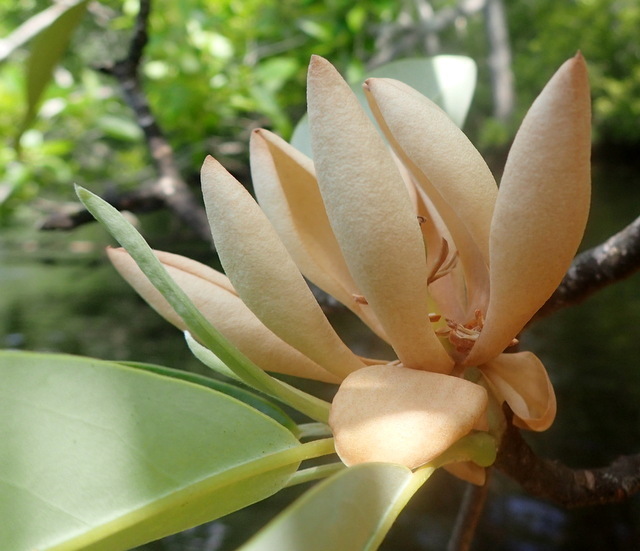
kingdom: Plantae
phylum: Tracheophyta
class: Magnoliopsida
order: Magnoliales
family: Magnoliaceae
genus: Magnolia
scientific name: Magnolia virginiana
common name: Swamp bay
